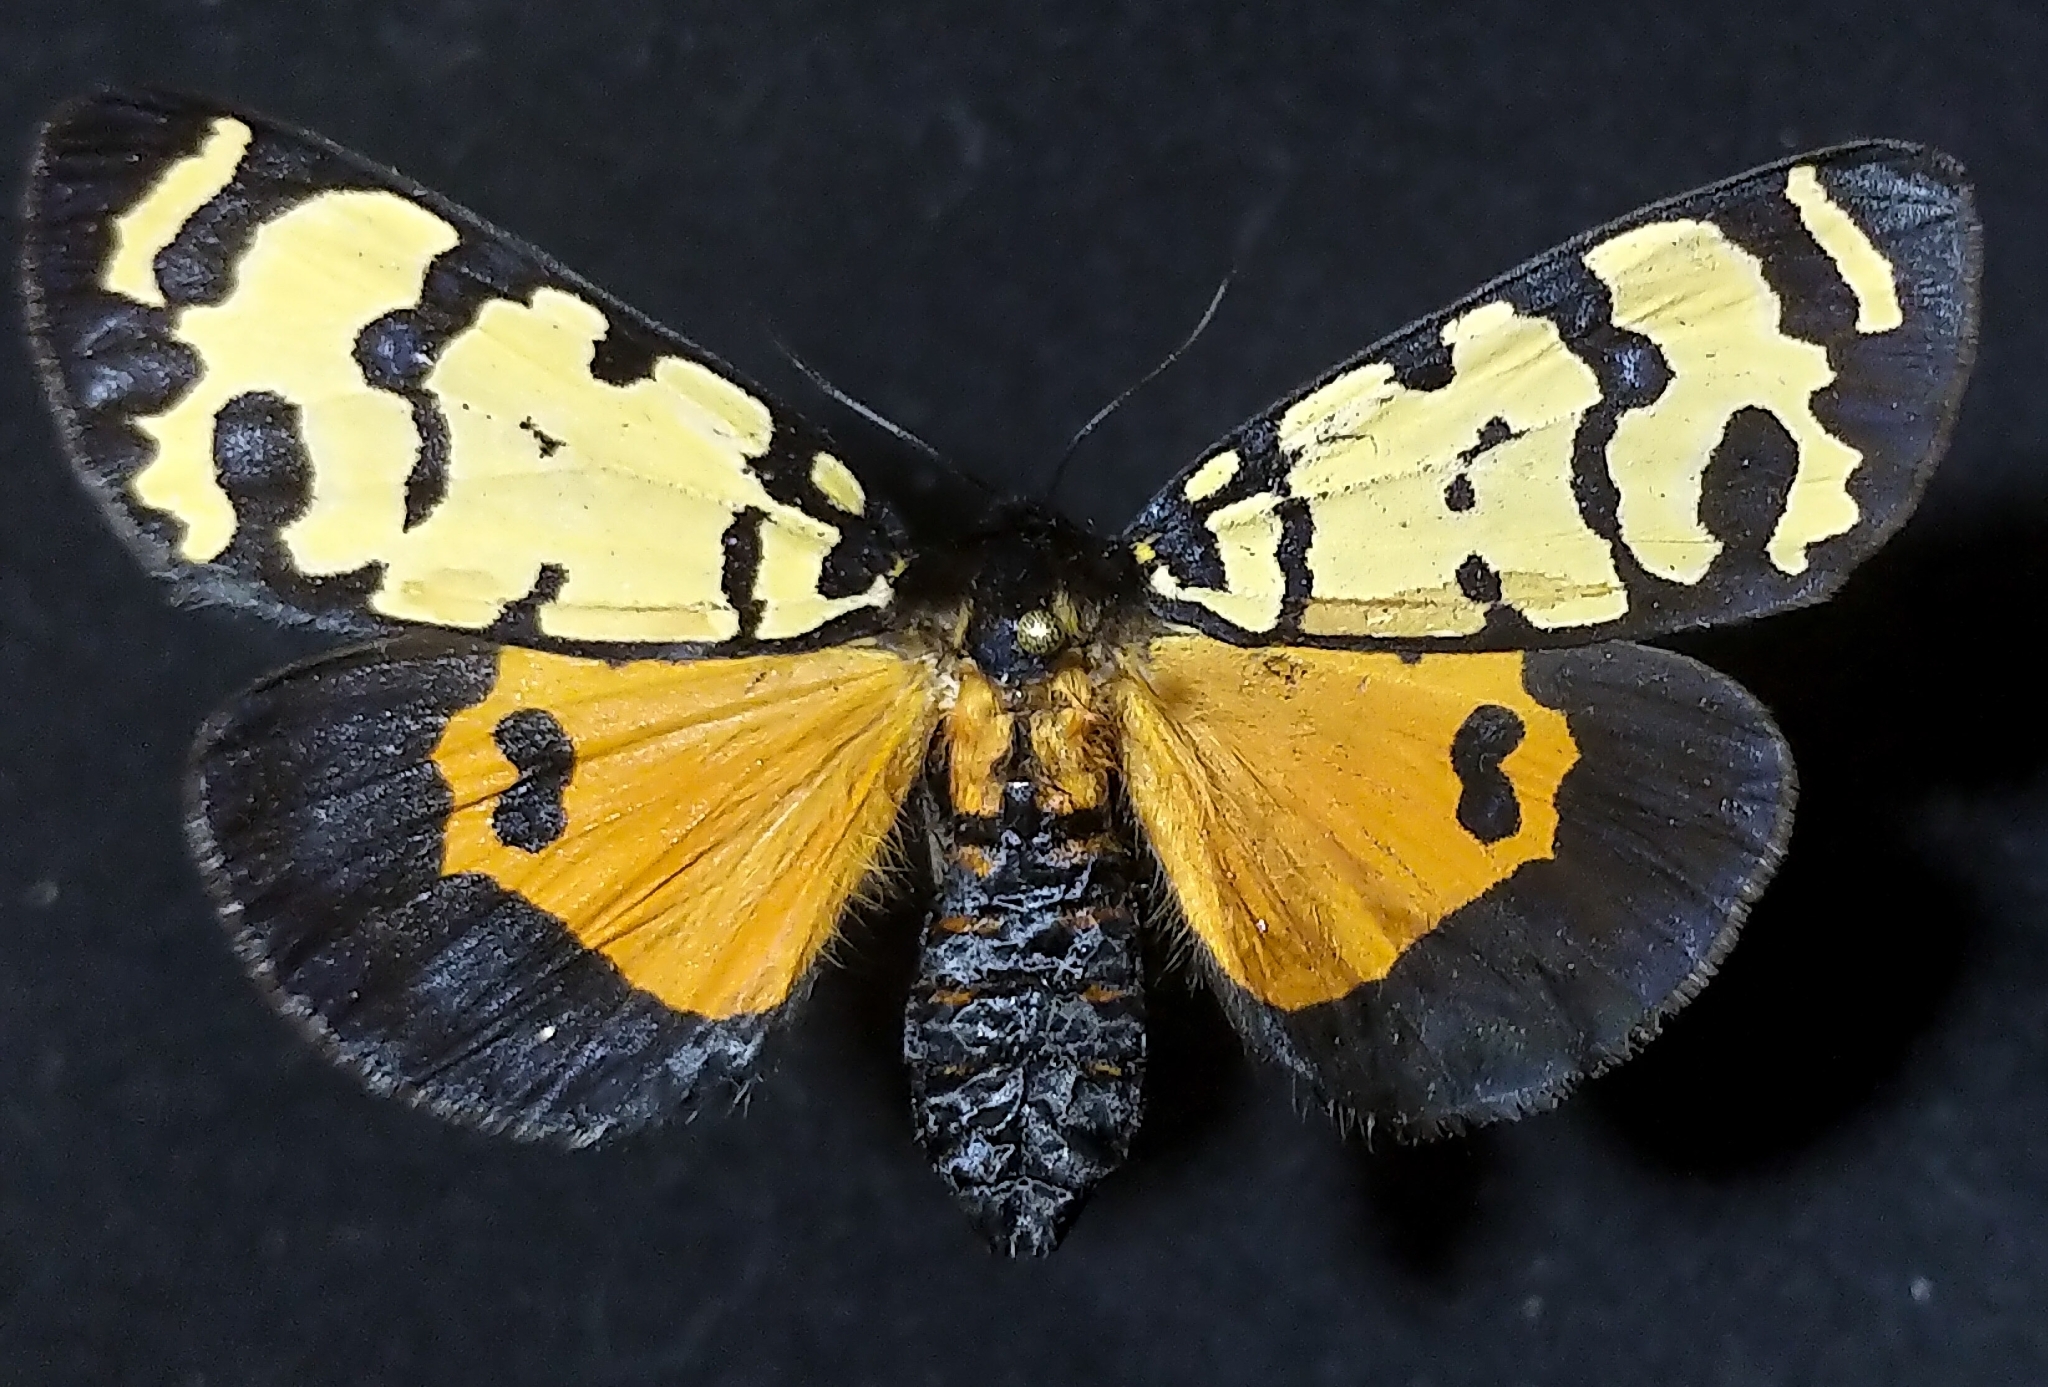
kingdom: Animalia
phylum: Arthropoda
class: Insecta
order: Lepidoptera
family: Erebidae
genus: Amphicallia
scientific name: Amphicallia bellatrix
